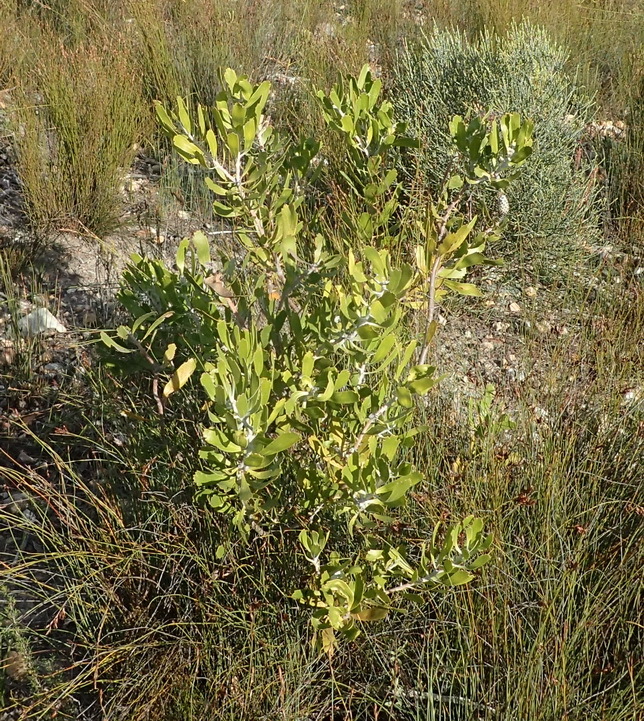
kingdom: Plantae
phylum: Tracheophyta
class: Magnoliopsida
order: Proteales
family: Proteaceae
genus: Leucospermum
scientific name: Leucospermum cuneiforme
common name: Common pincushion
